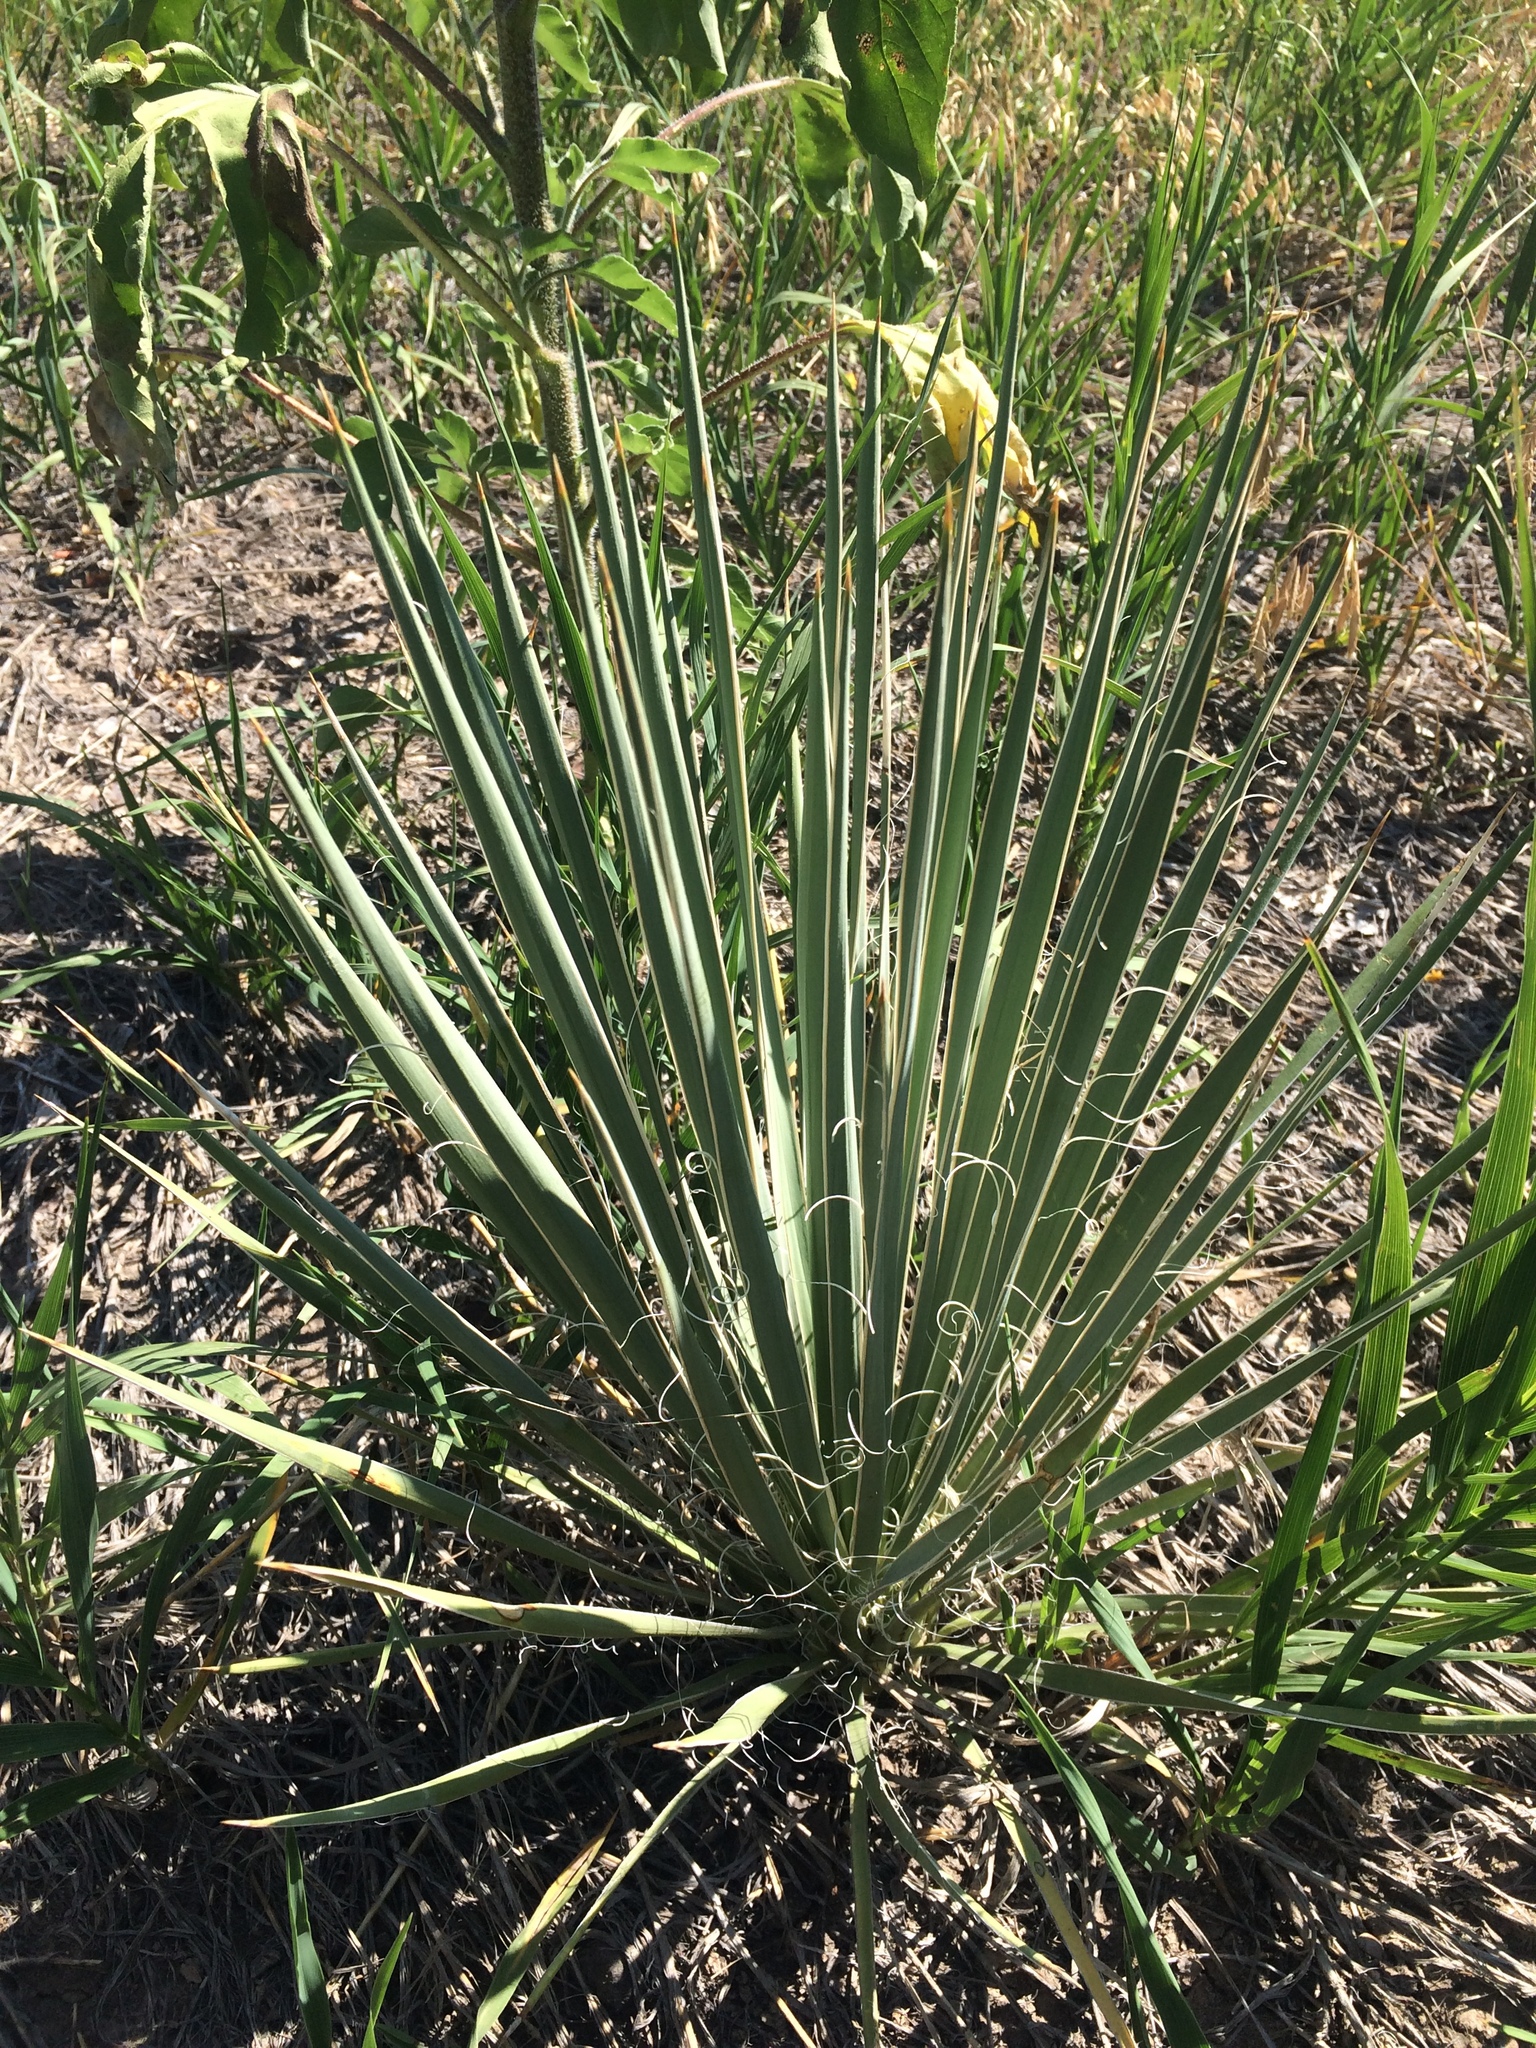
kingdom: Plantae
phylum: Tracheophyta
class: Liliopsida
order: Asparagales
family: Asparagaceae
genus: Yucca
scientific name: Yucca glauca
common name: Great plains yucca
